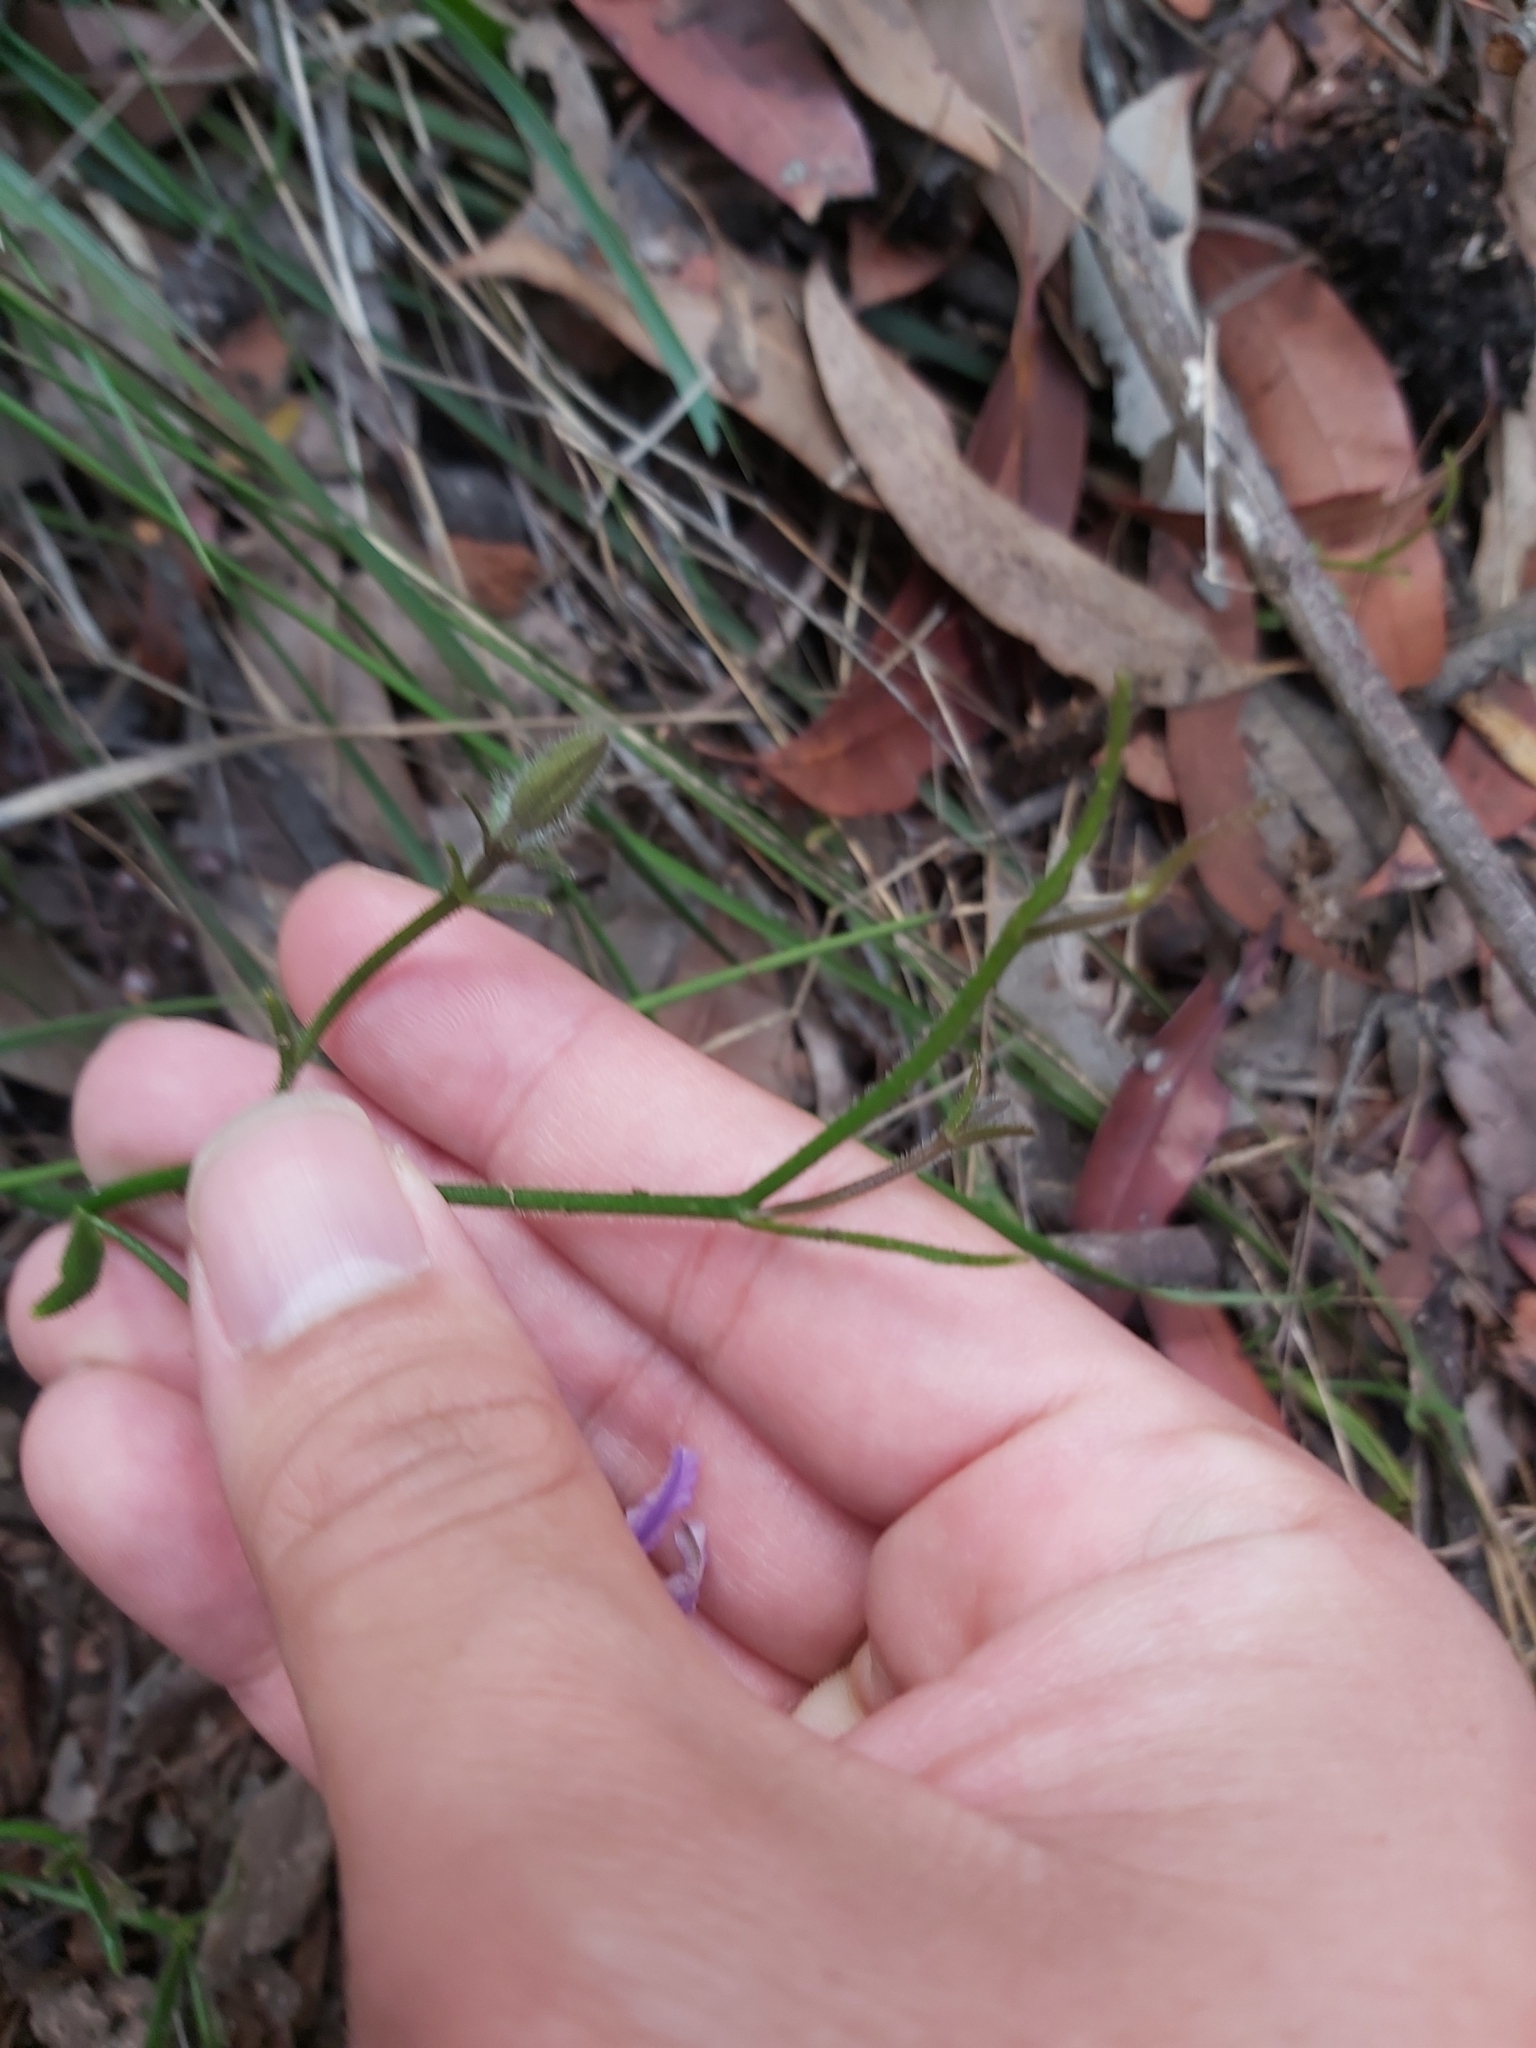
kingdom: Plantae
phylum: Tracheophyta
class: Magnoliopsida
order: Asterales
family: Goodeniaceae
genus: Scaevola
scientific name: Scaevola ramosissima
